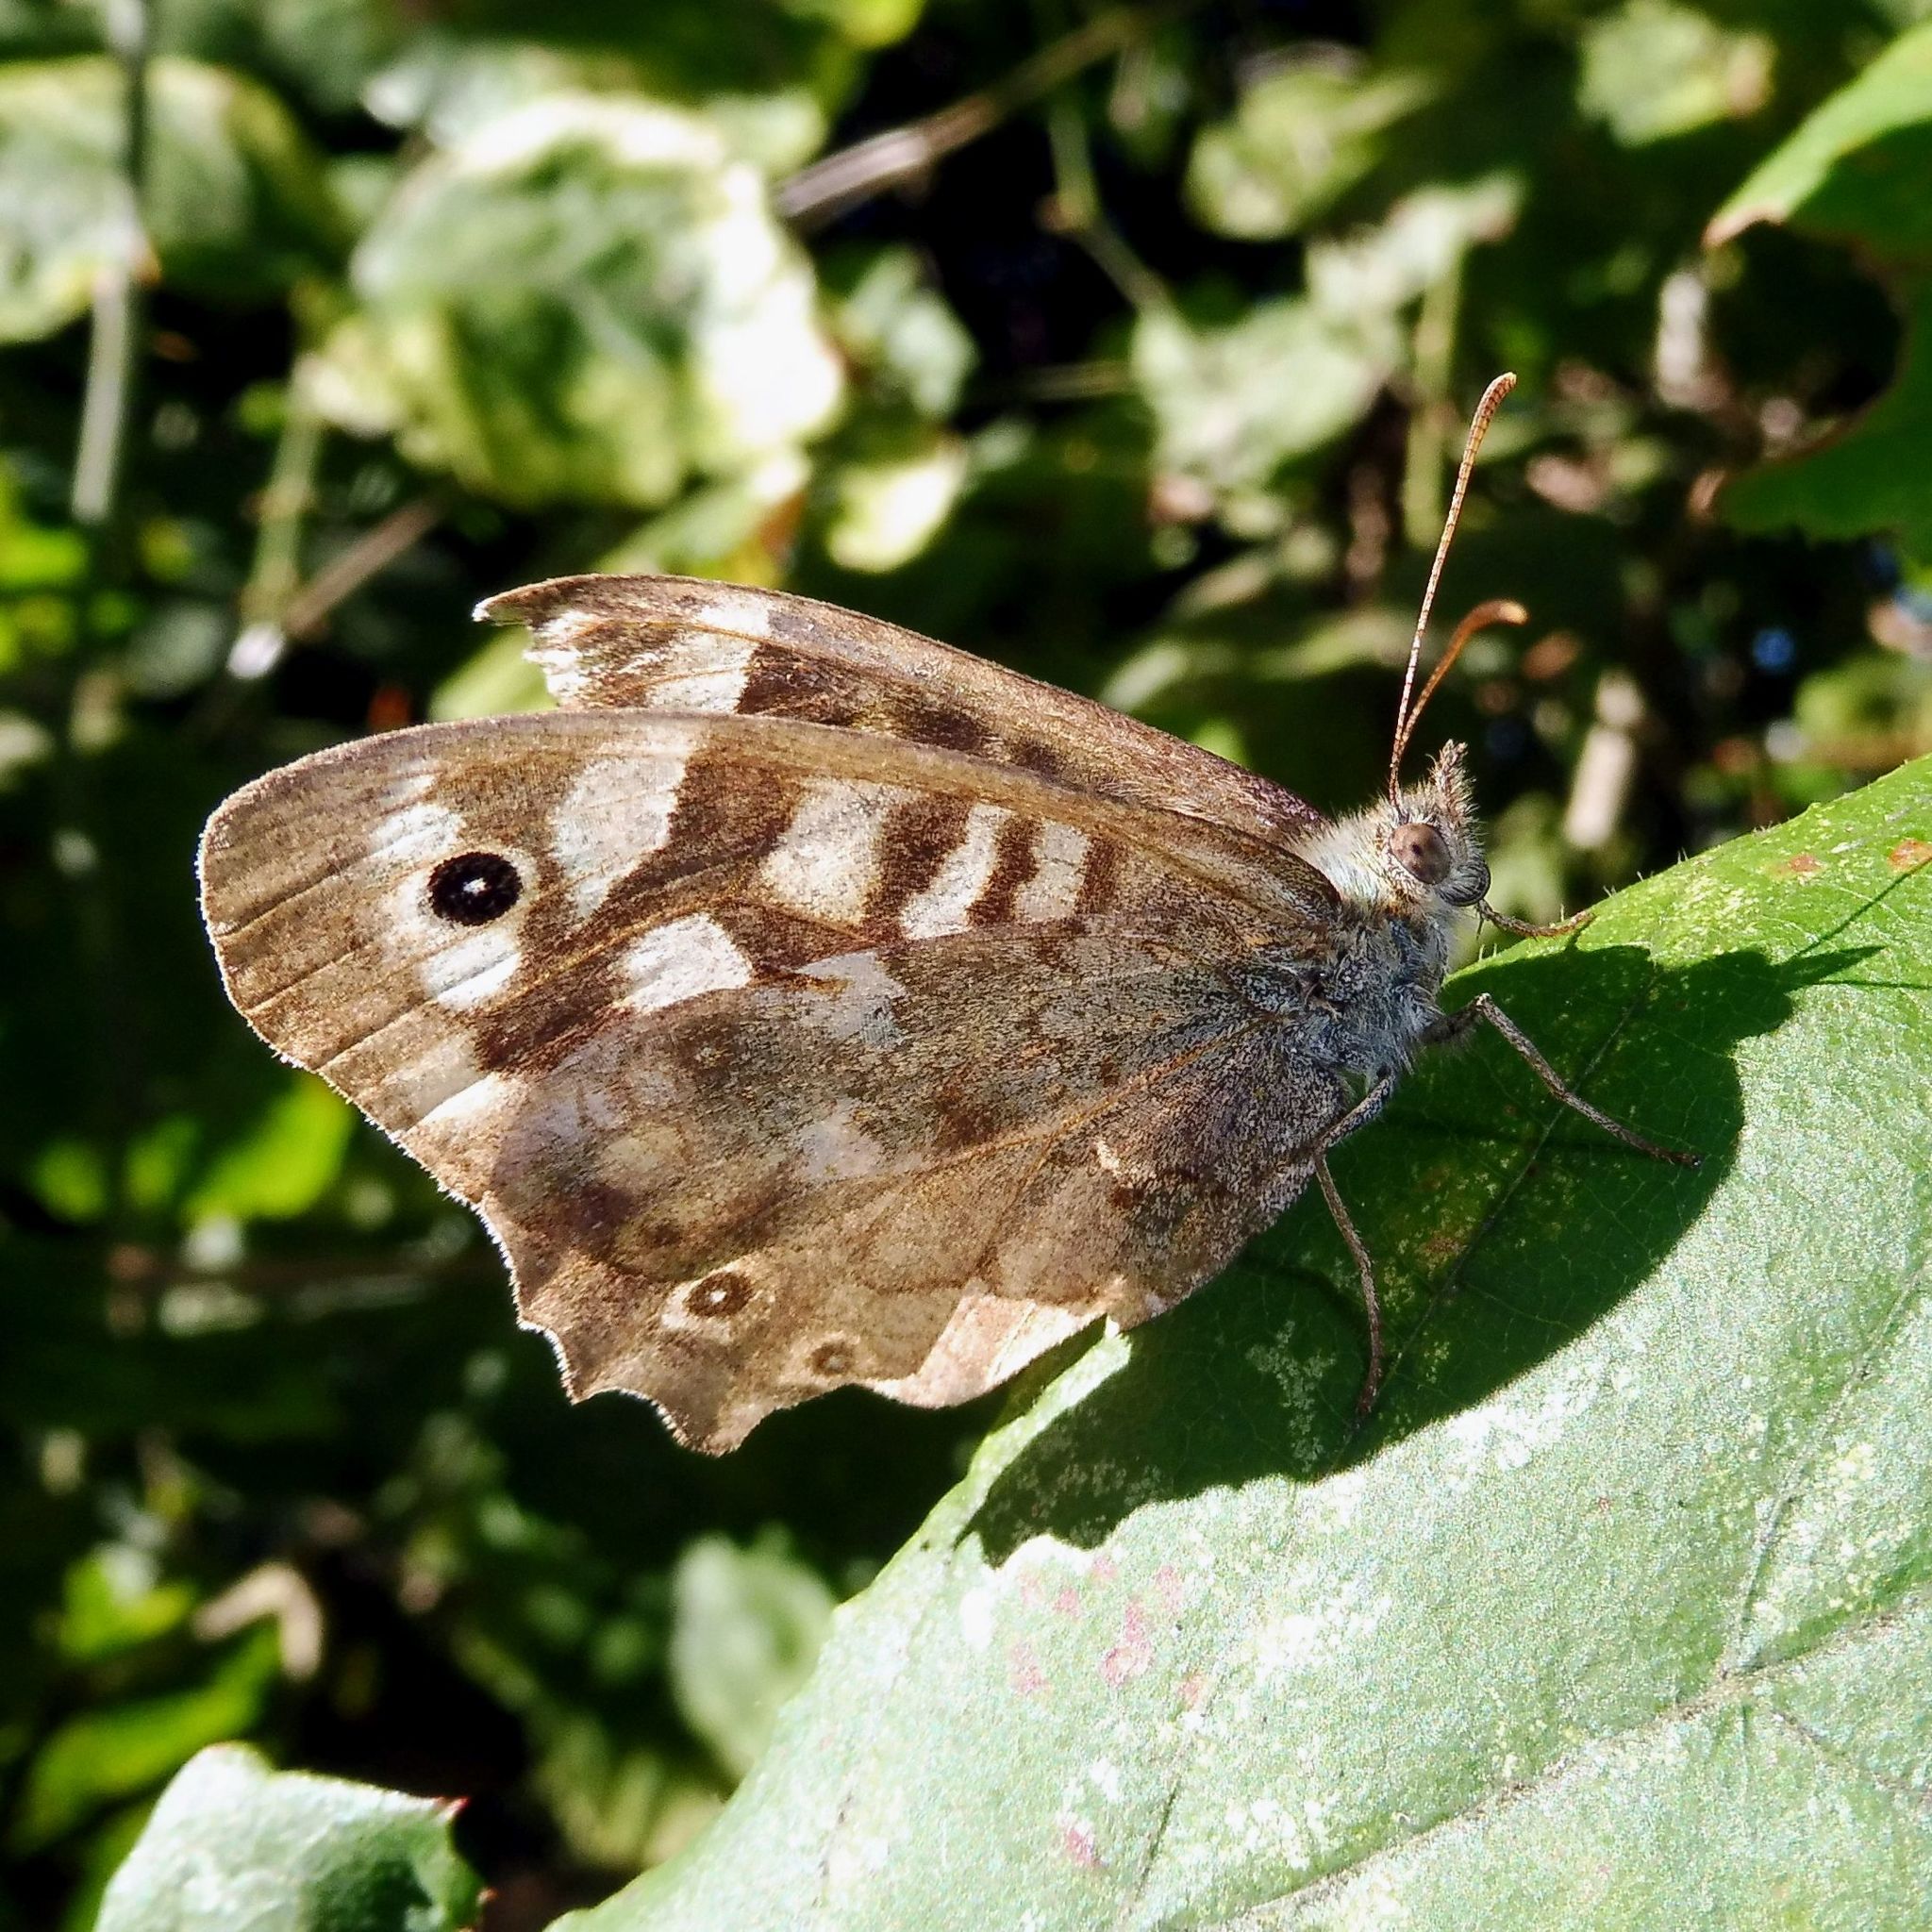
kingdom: Animalia
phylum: Arthropoda
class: Insecta
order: Lepidoptera
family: Nymphalidae
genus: Pararge
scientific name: Pararge aegeria
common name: Speckled wood
